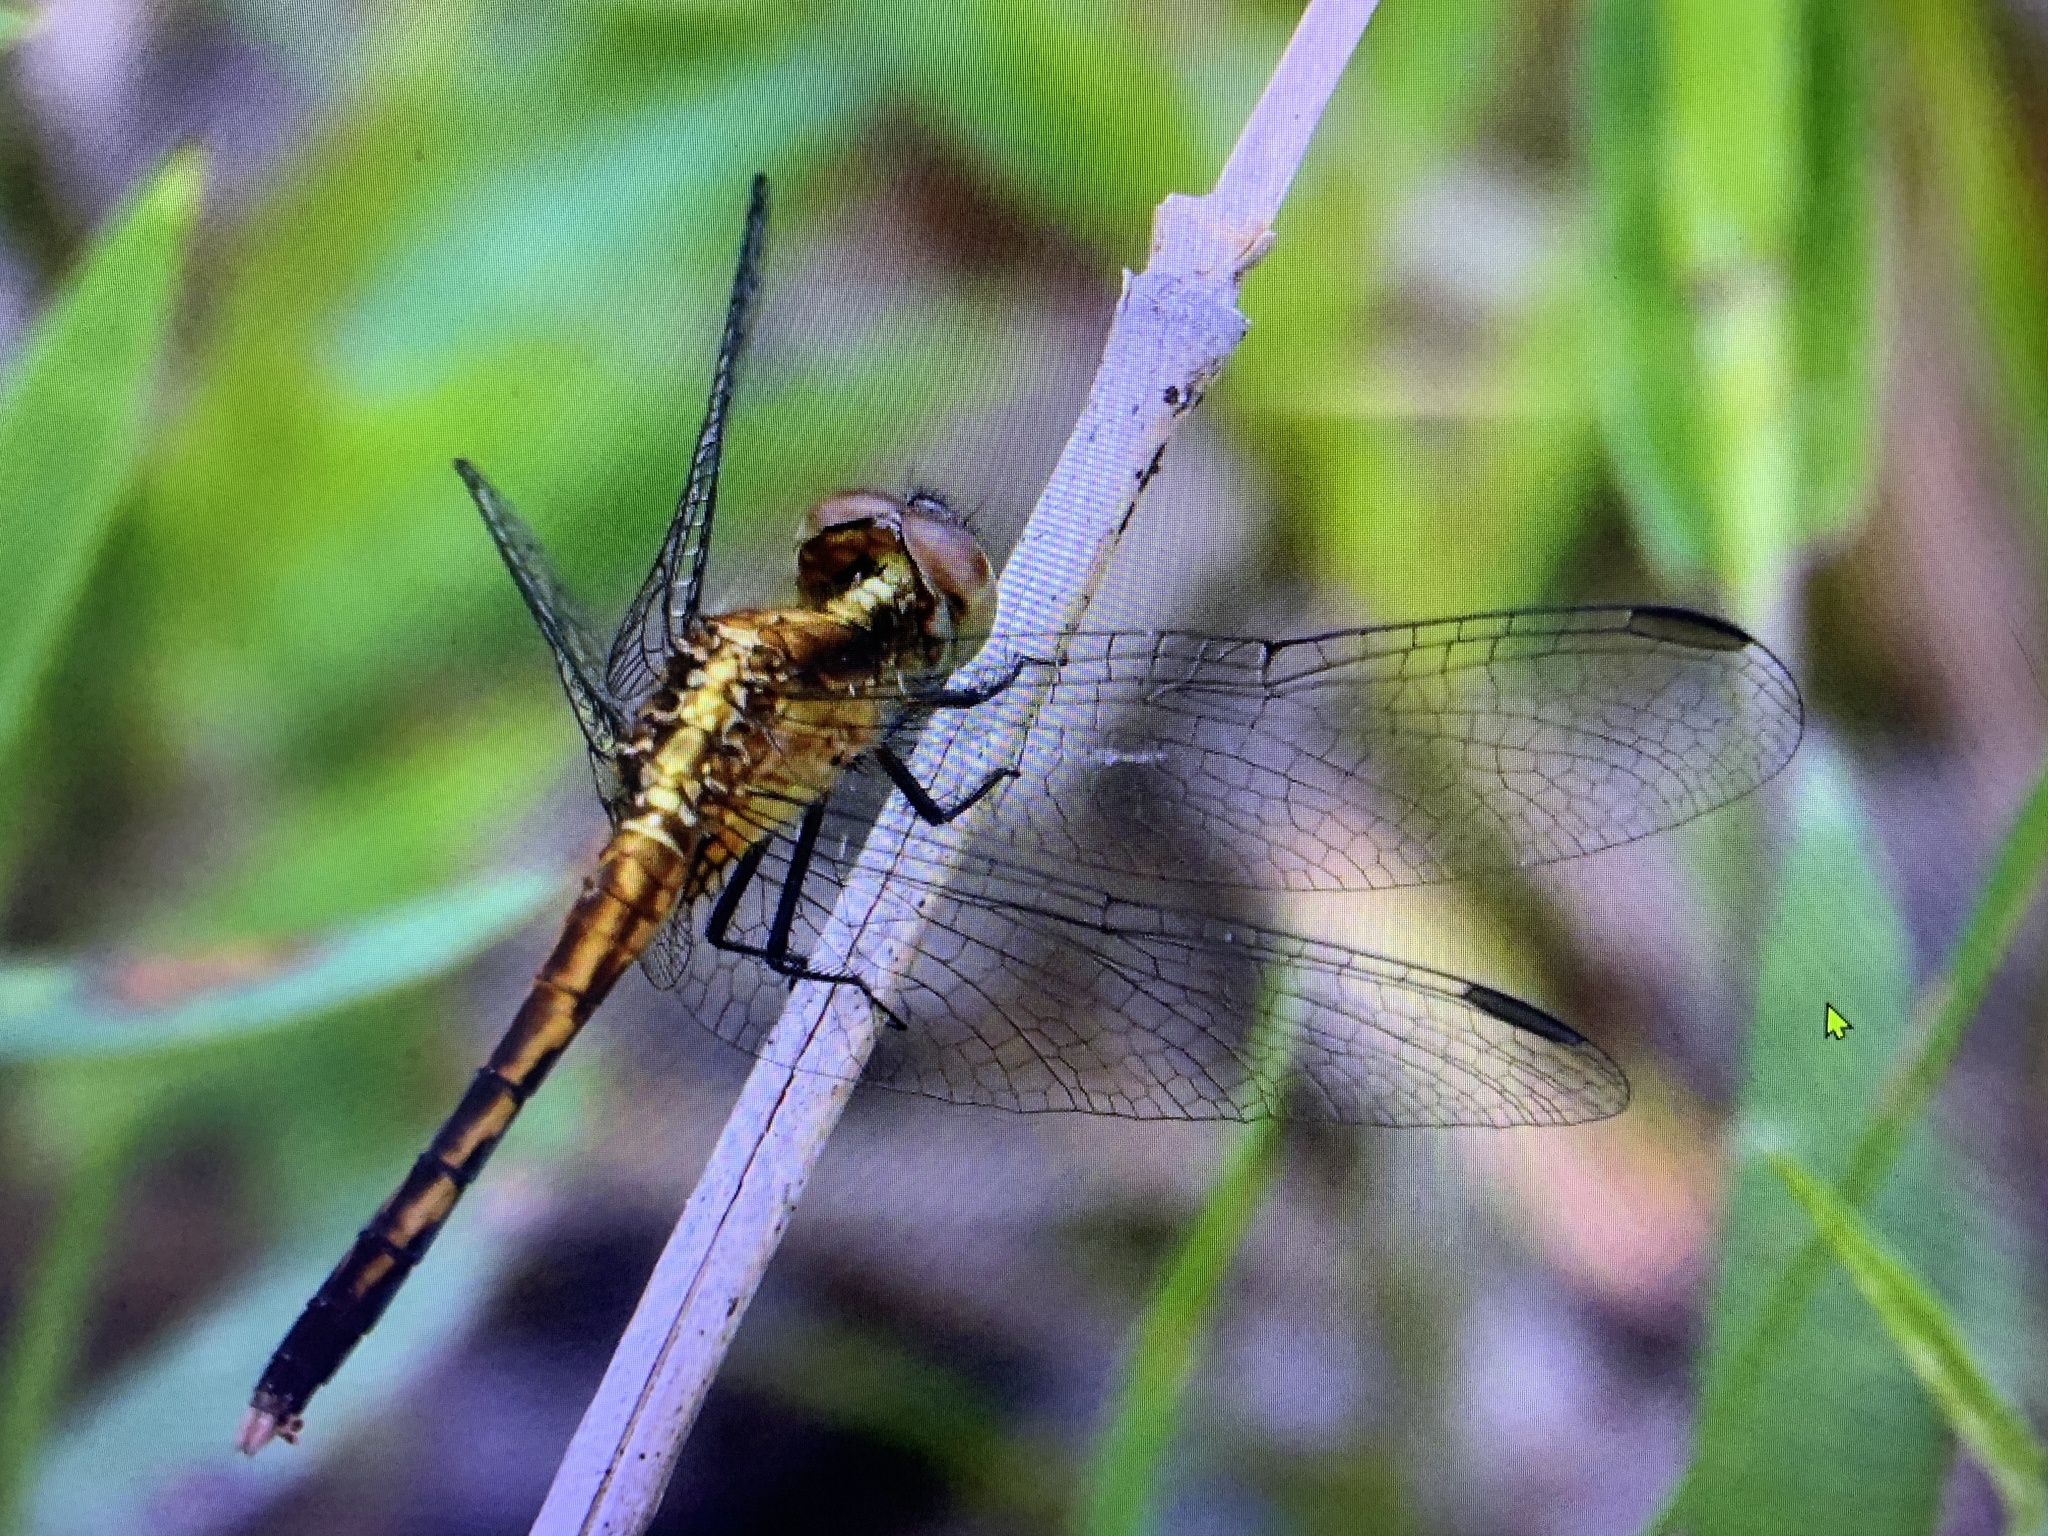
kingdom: Animalia
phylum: Arthropoda
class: Insecta
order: Odonata
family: Libellulidae
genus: Erythrodiplax
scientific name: Erythrodiplax minuscula
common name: Little blue dragonlet
